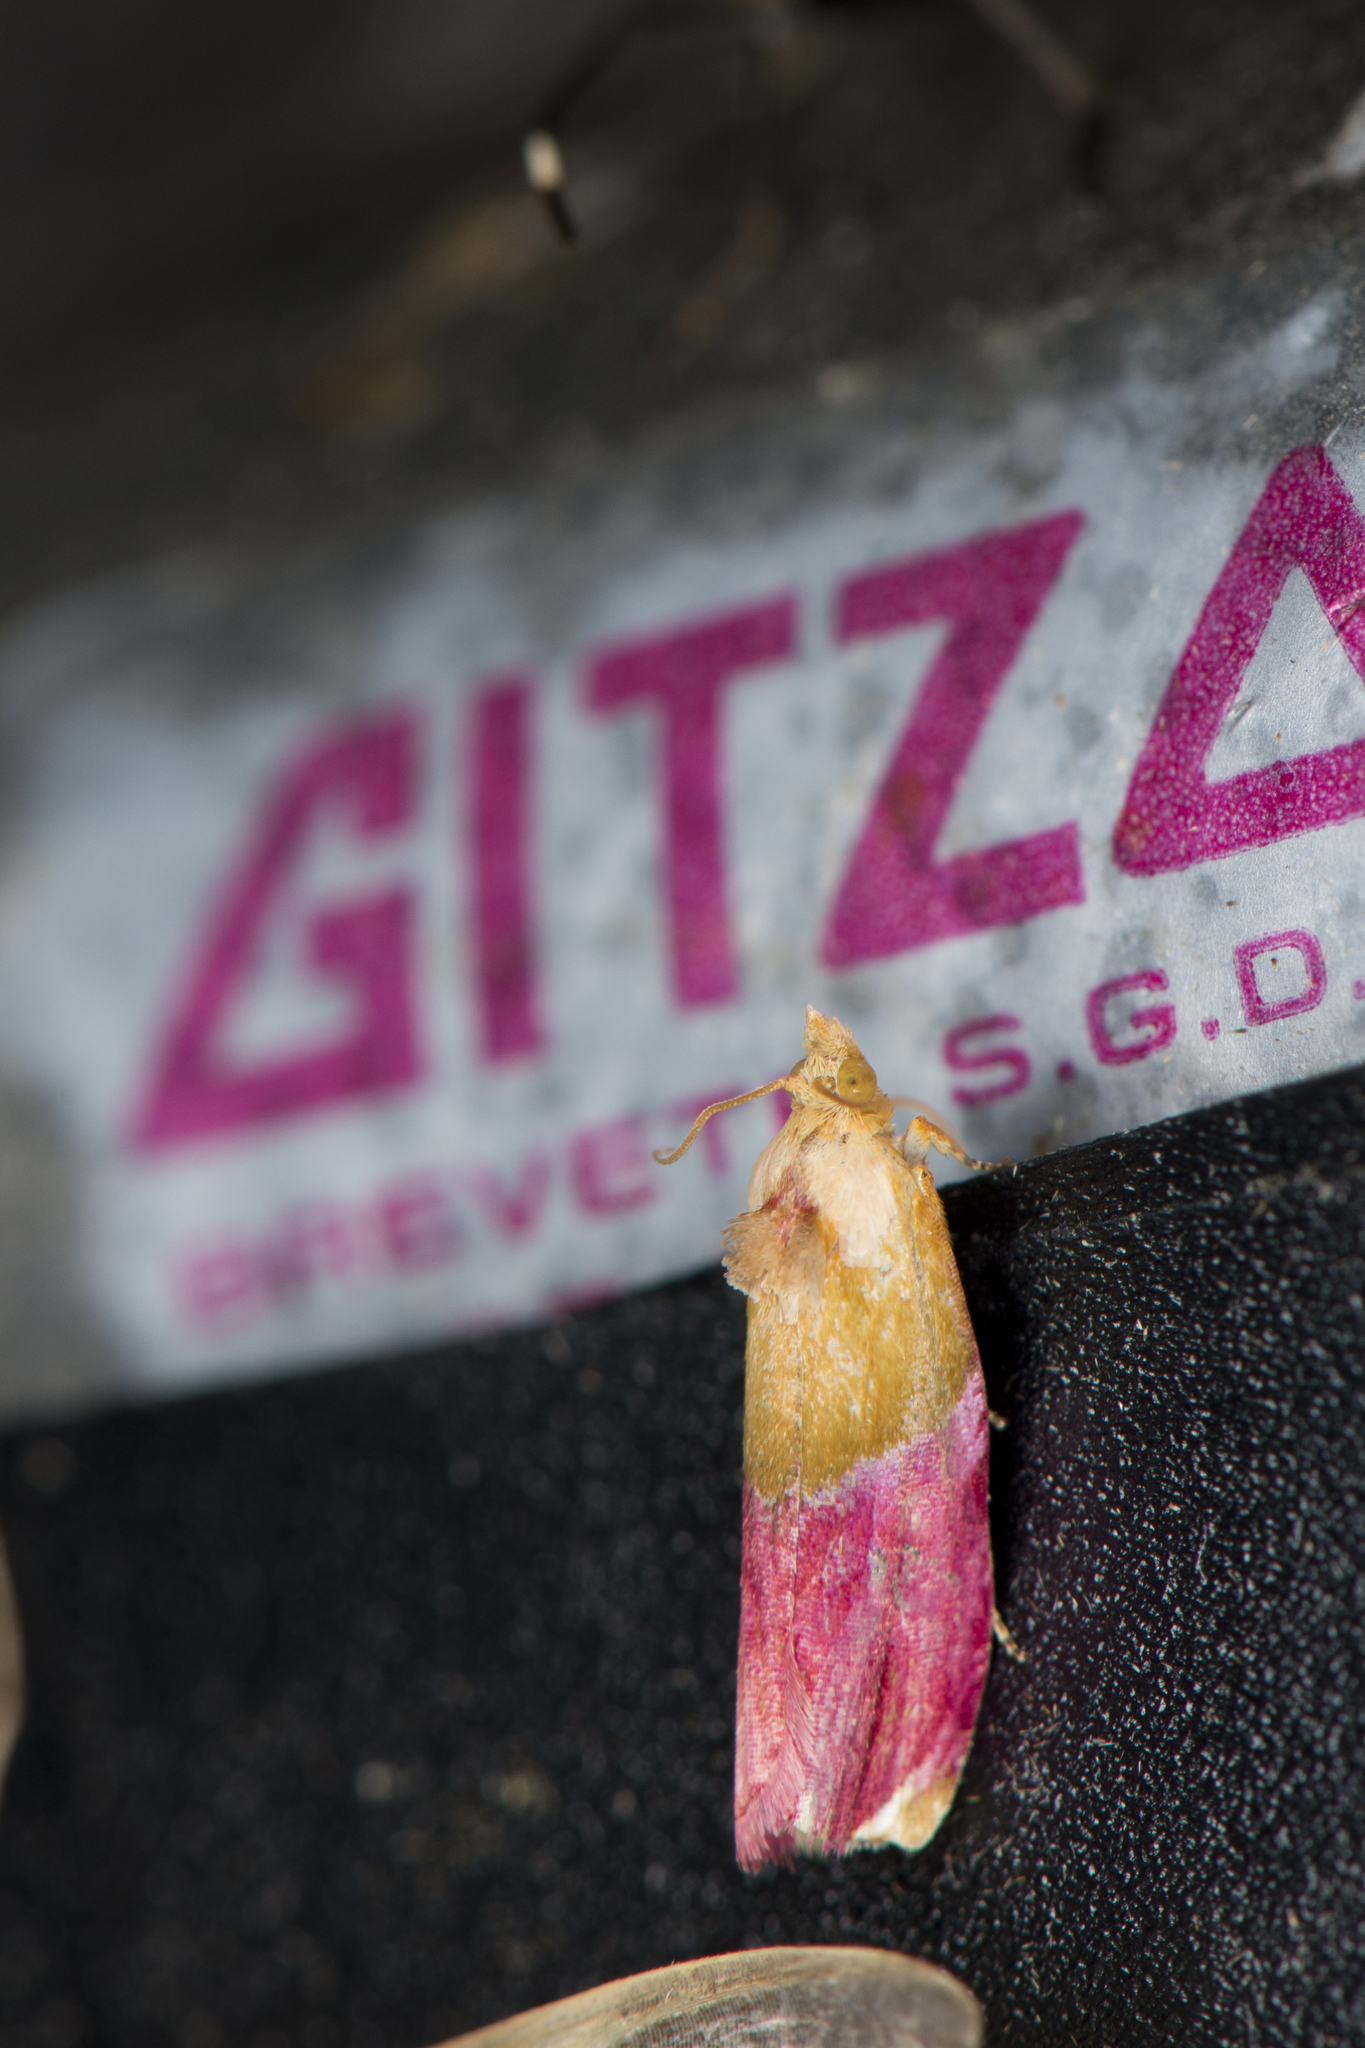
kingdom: Animalia
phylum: Arthropoda
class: Insecta
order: Lepidoptera
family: Tortricidae
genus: Costosa
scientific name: Costosa rhodantha
